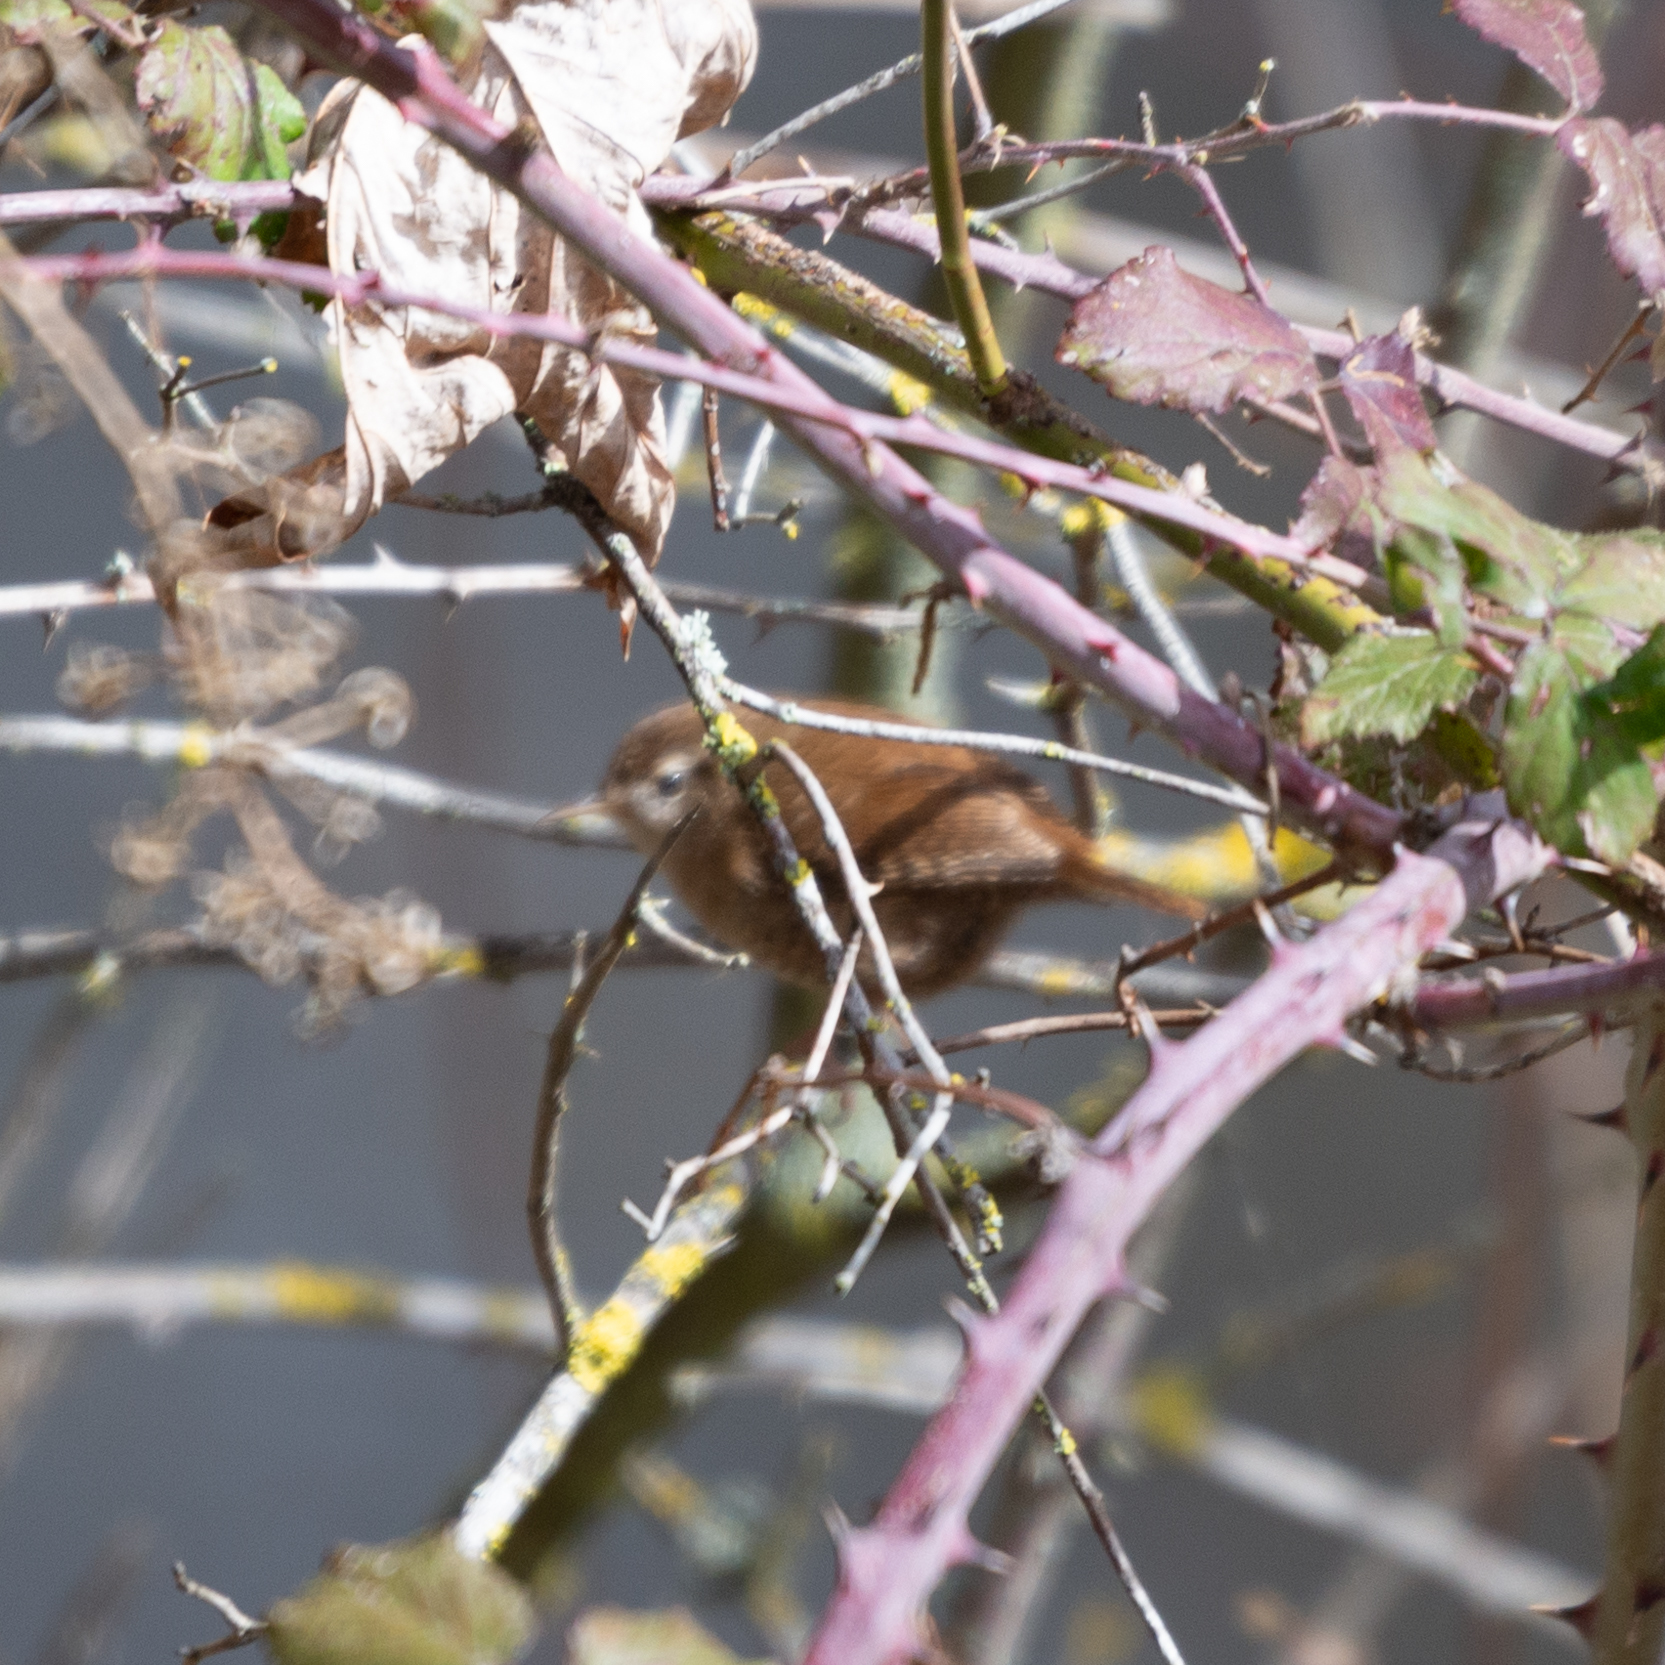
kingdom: Animalia
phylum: Chordata
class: Aves
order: Passeriformes
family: Troglodytidae
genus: Troglodytes
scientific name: Troglodytes troglodytes
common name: Eurasian wren
